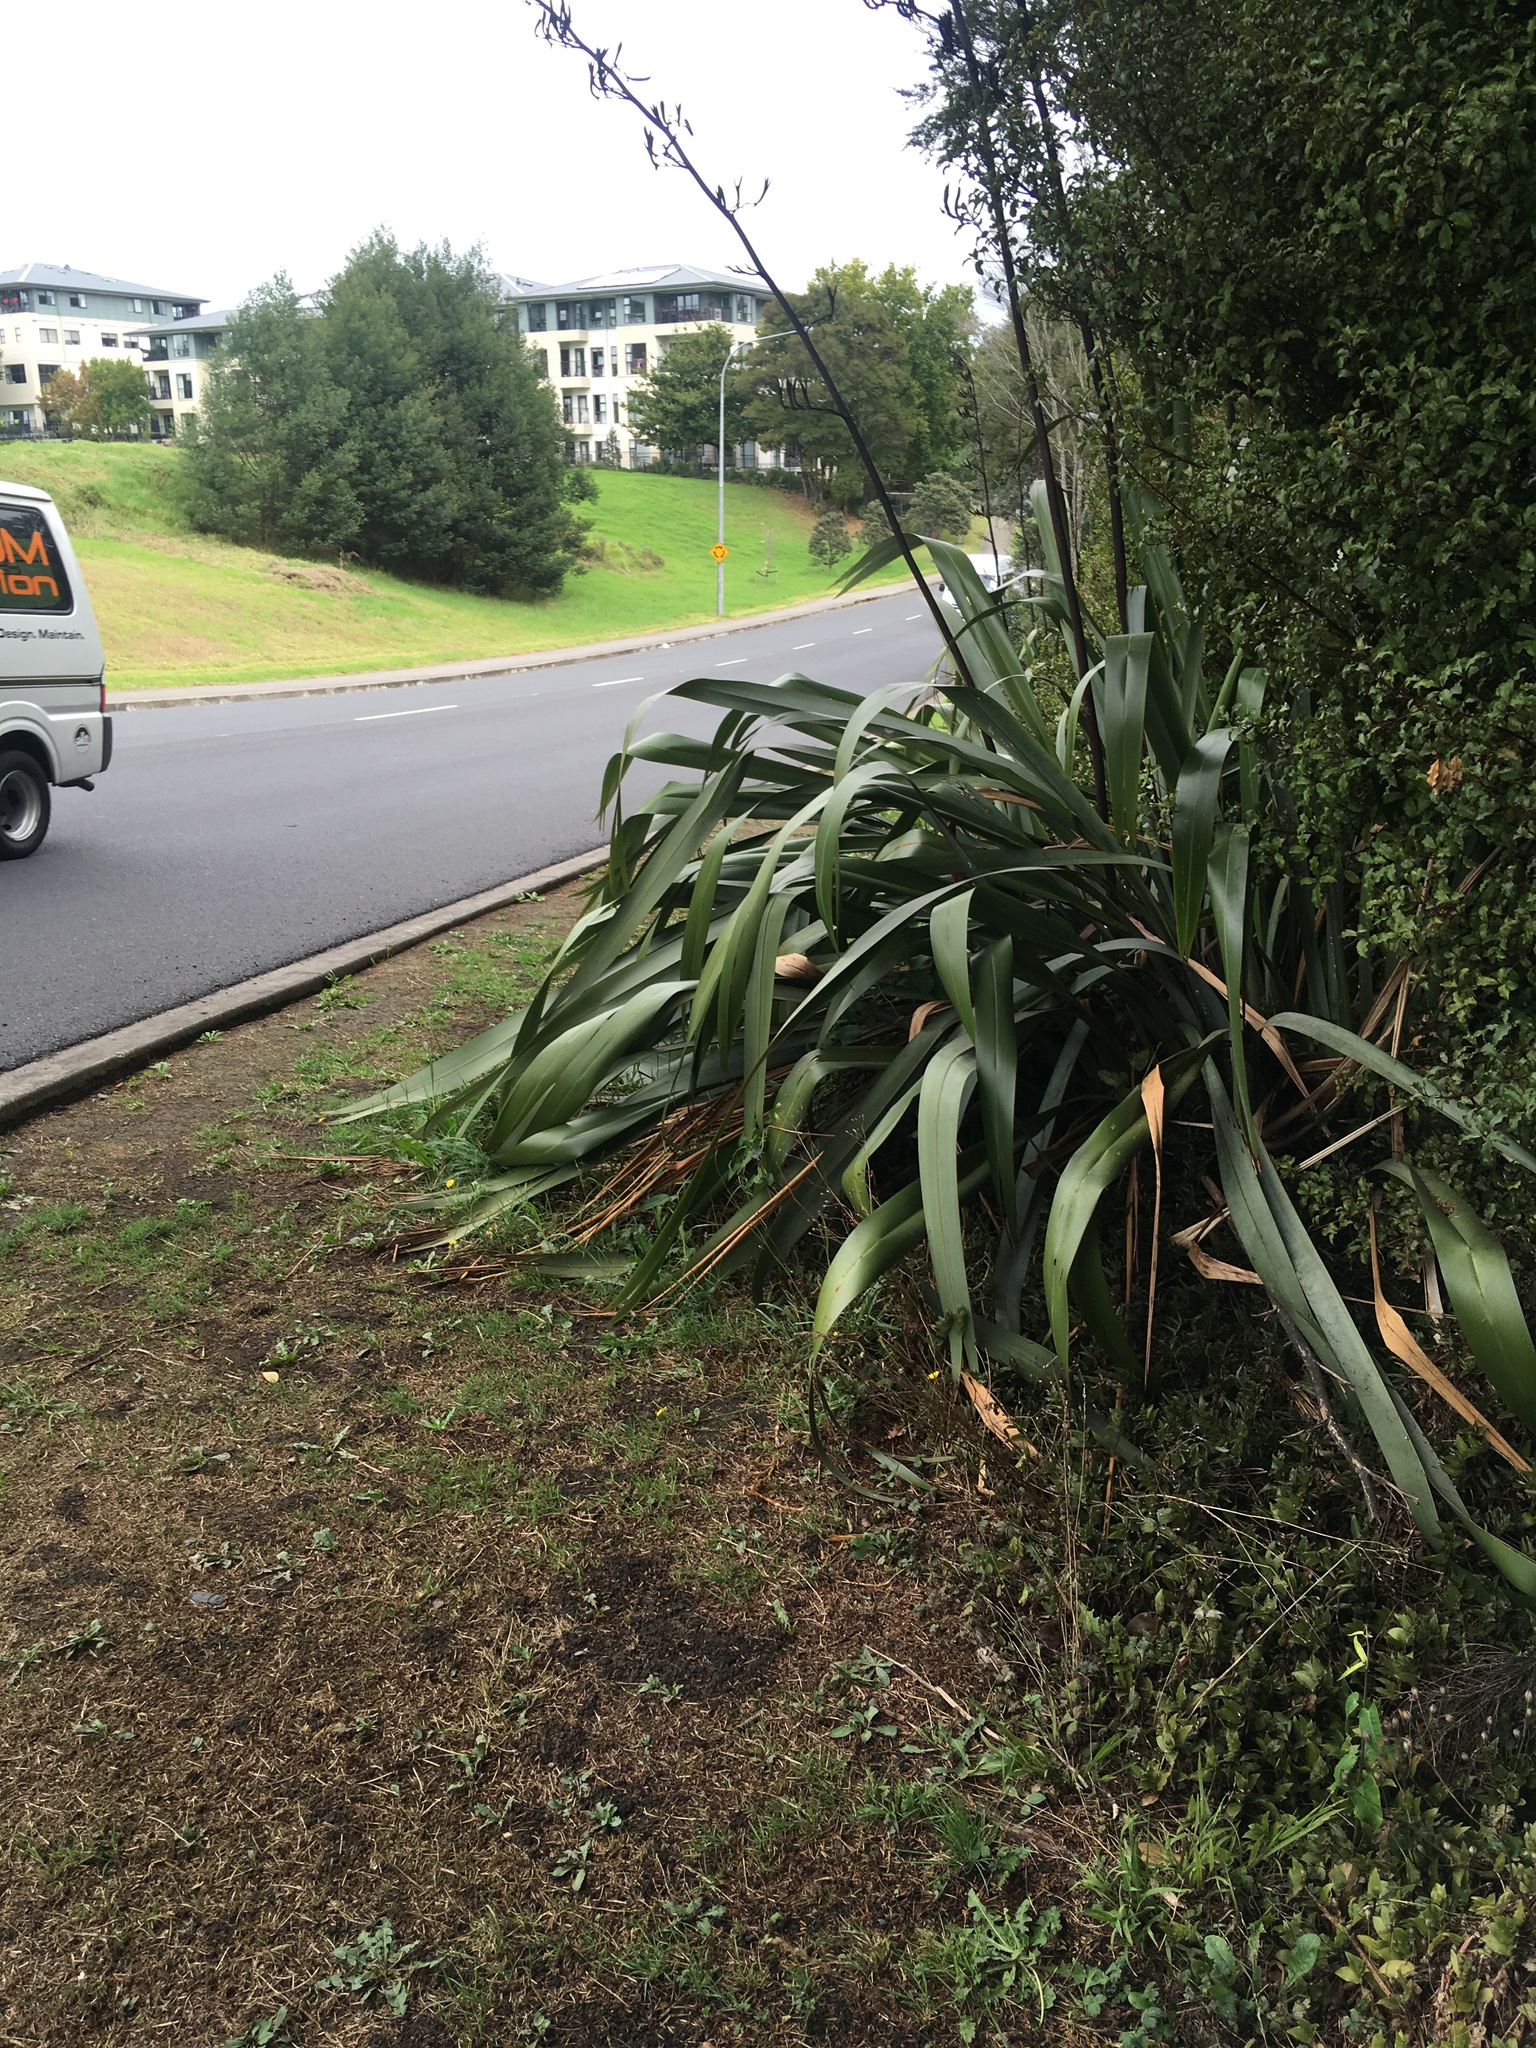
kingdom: Plantae
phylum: Tracheophyta
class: Liliopsida
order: Asparagales
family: Asphodelaceae
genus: Phormium
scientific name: Phormium tenax
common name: New zealand flax
